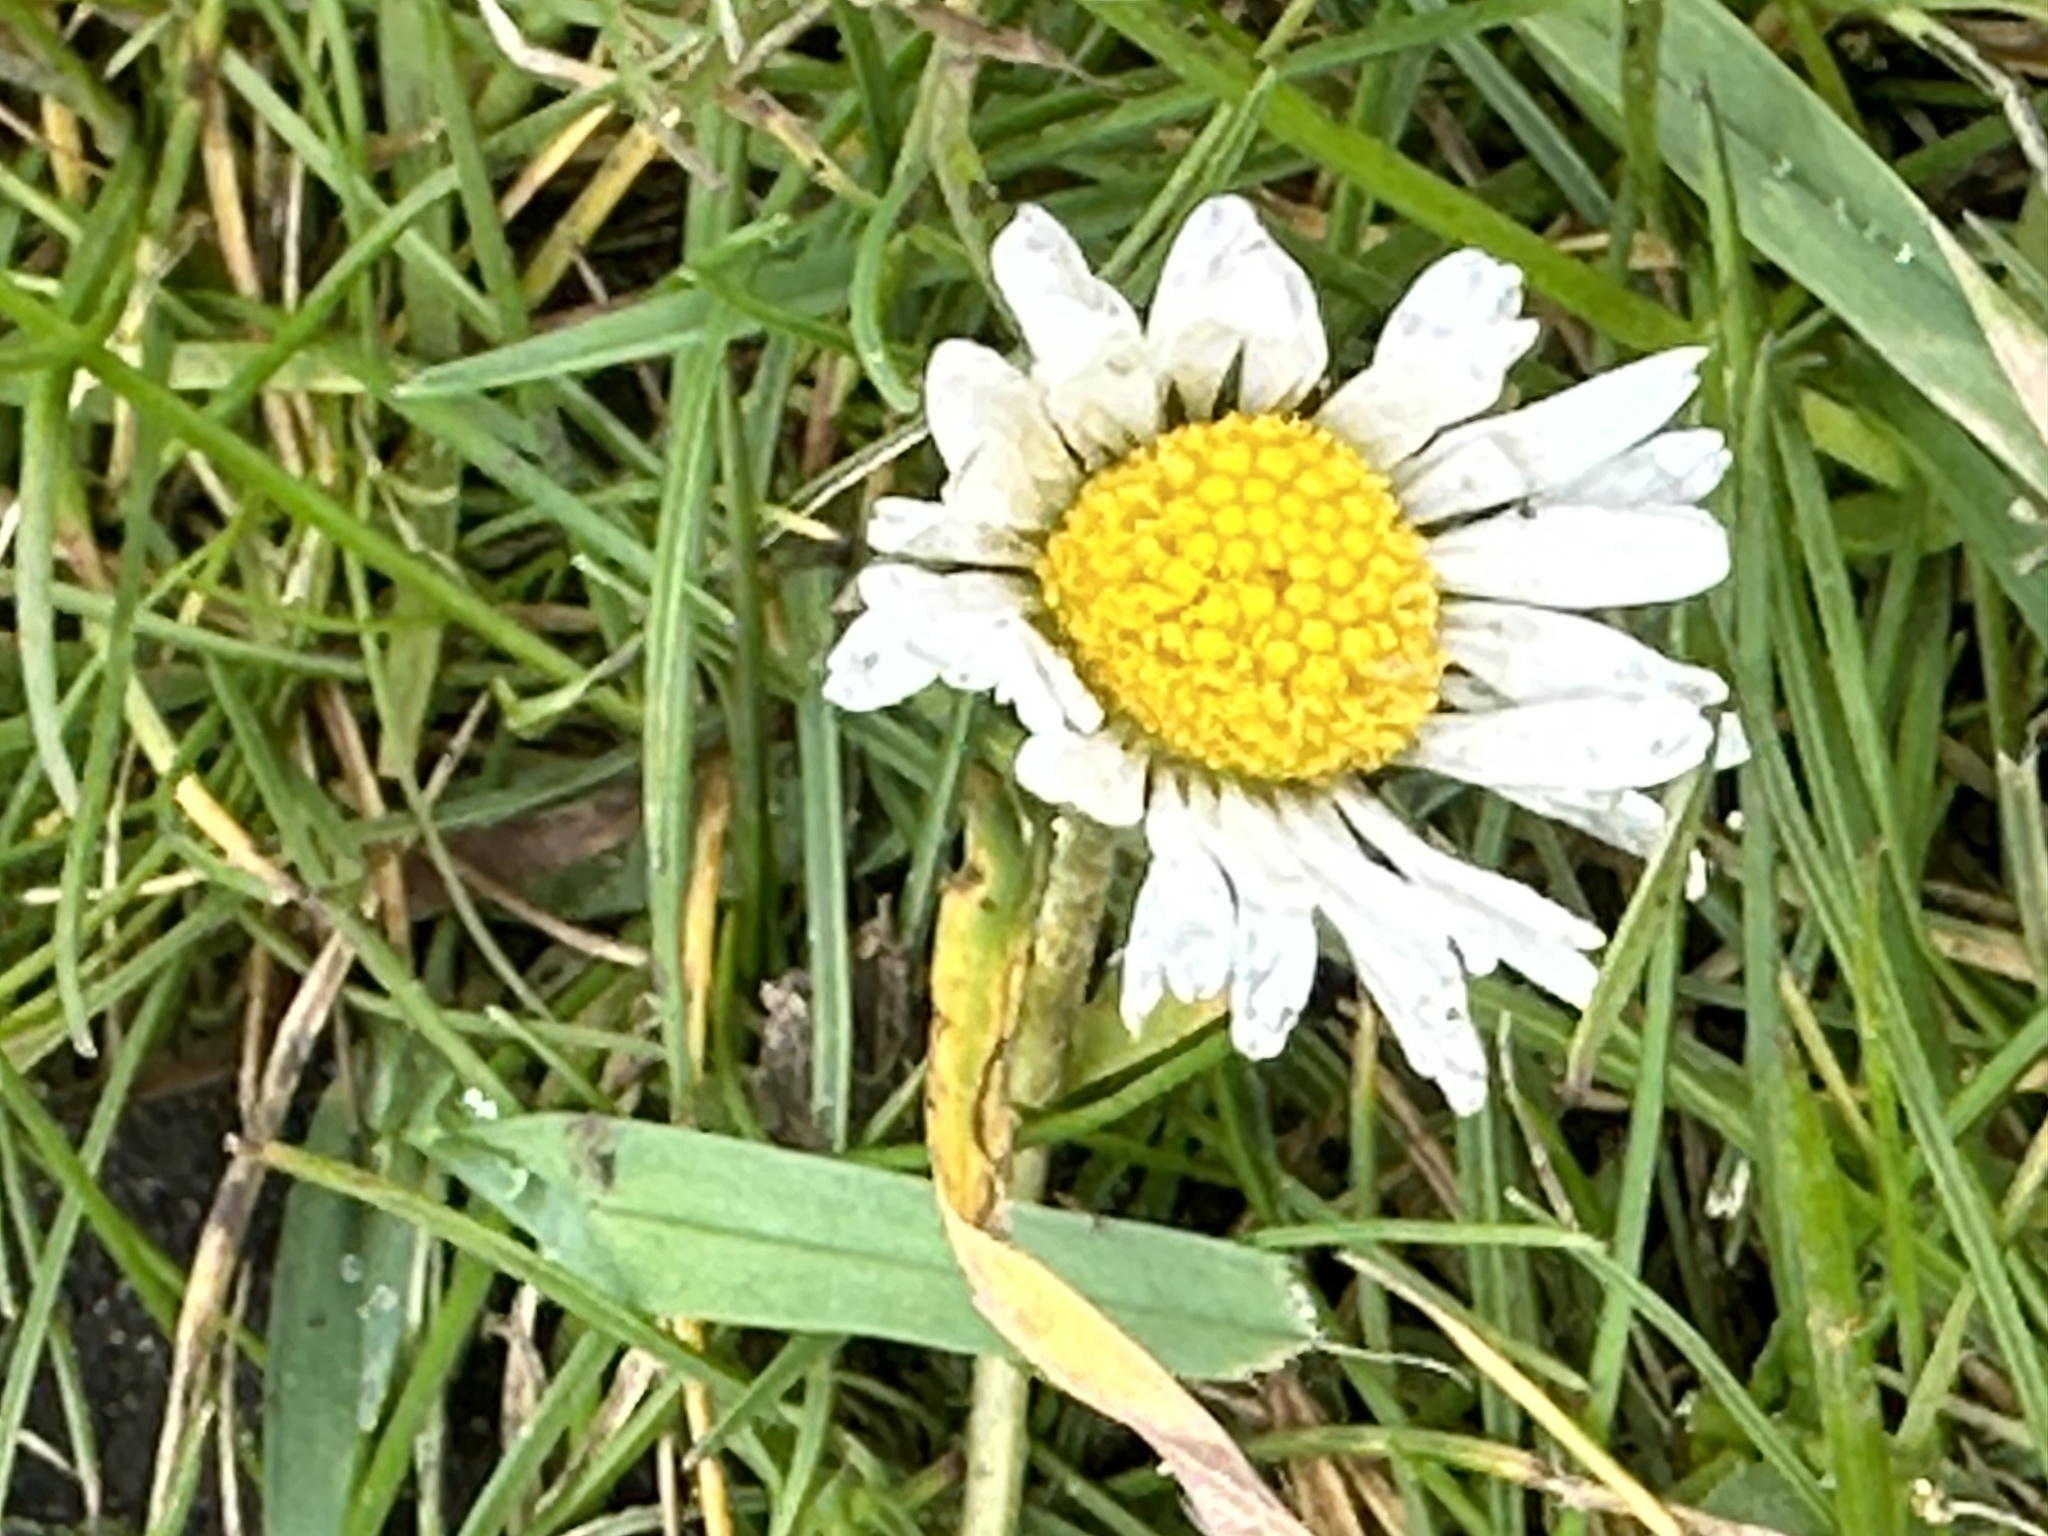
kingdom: Plantae
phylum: Tracheophyta
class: Magnoliopsida
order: Asterales
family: Asteraceae
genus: Bellis
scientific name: Bellis perennis
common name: Lawndaisy
